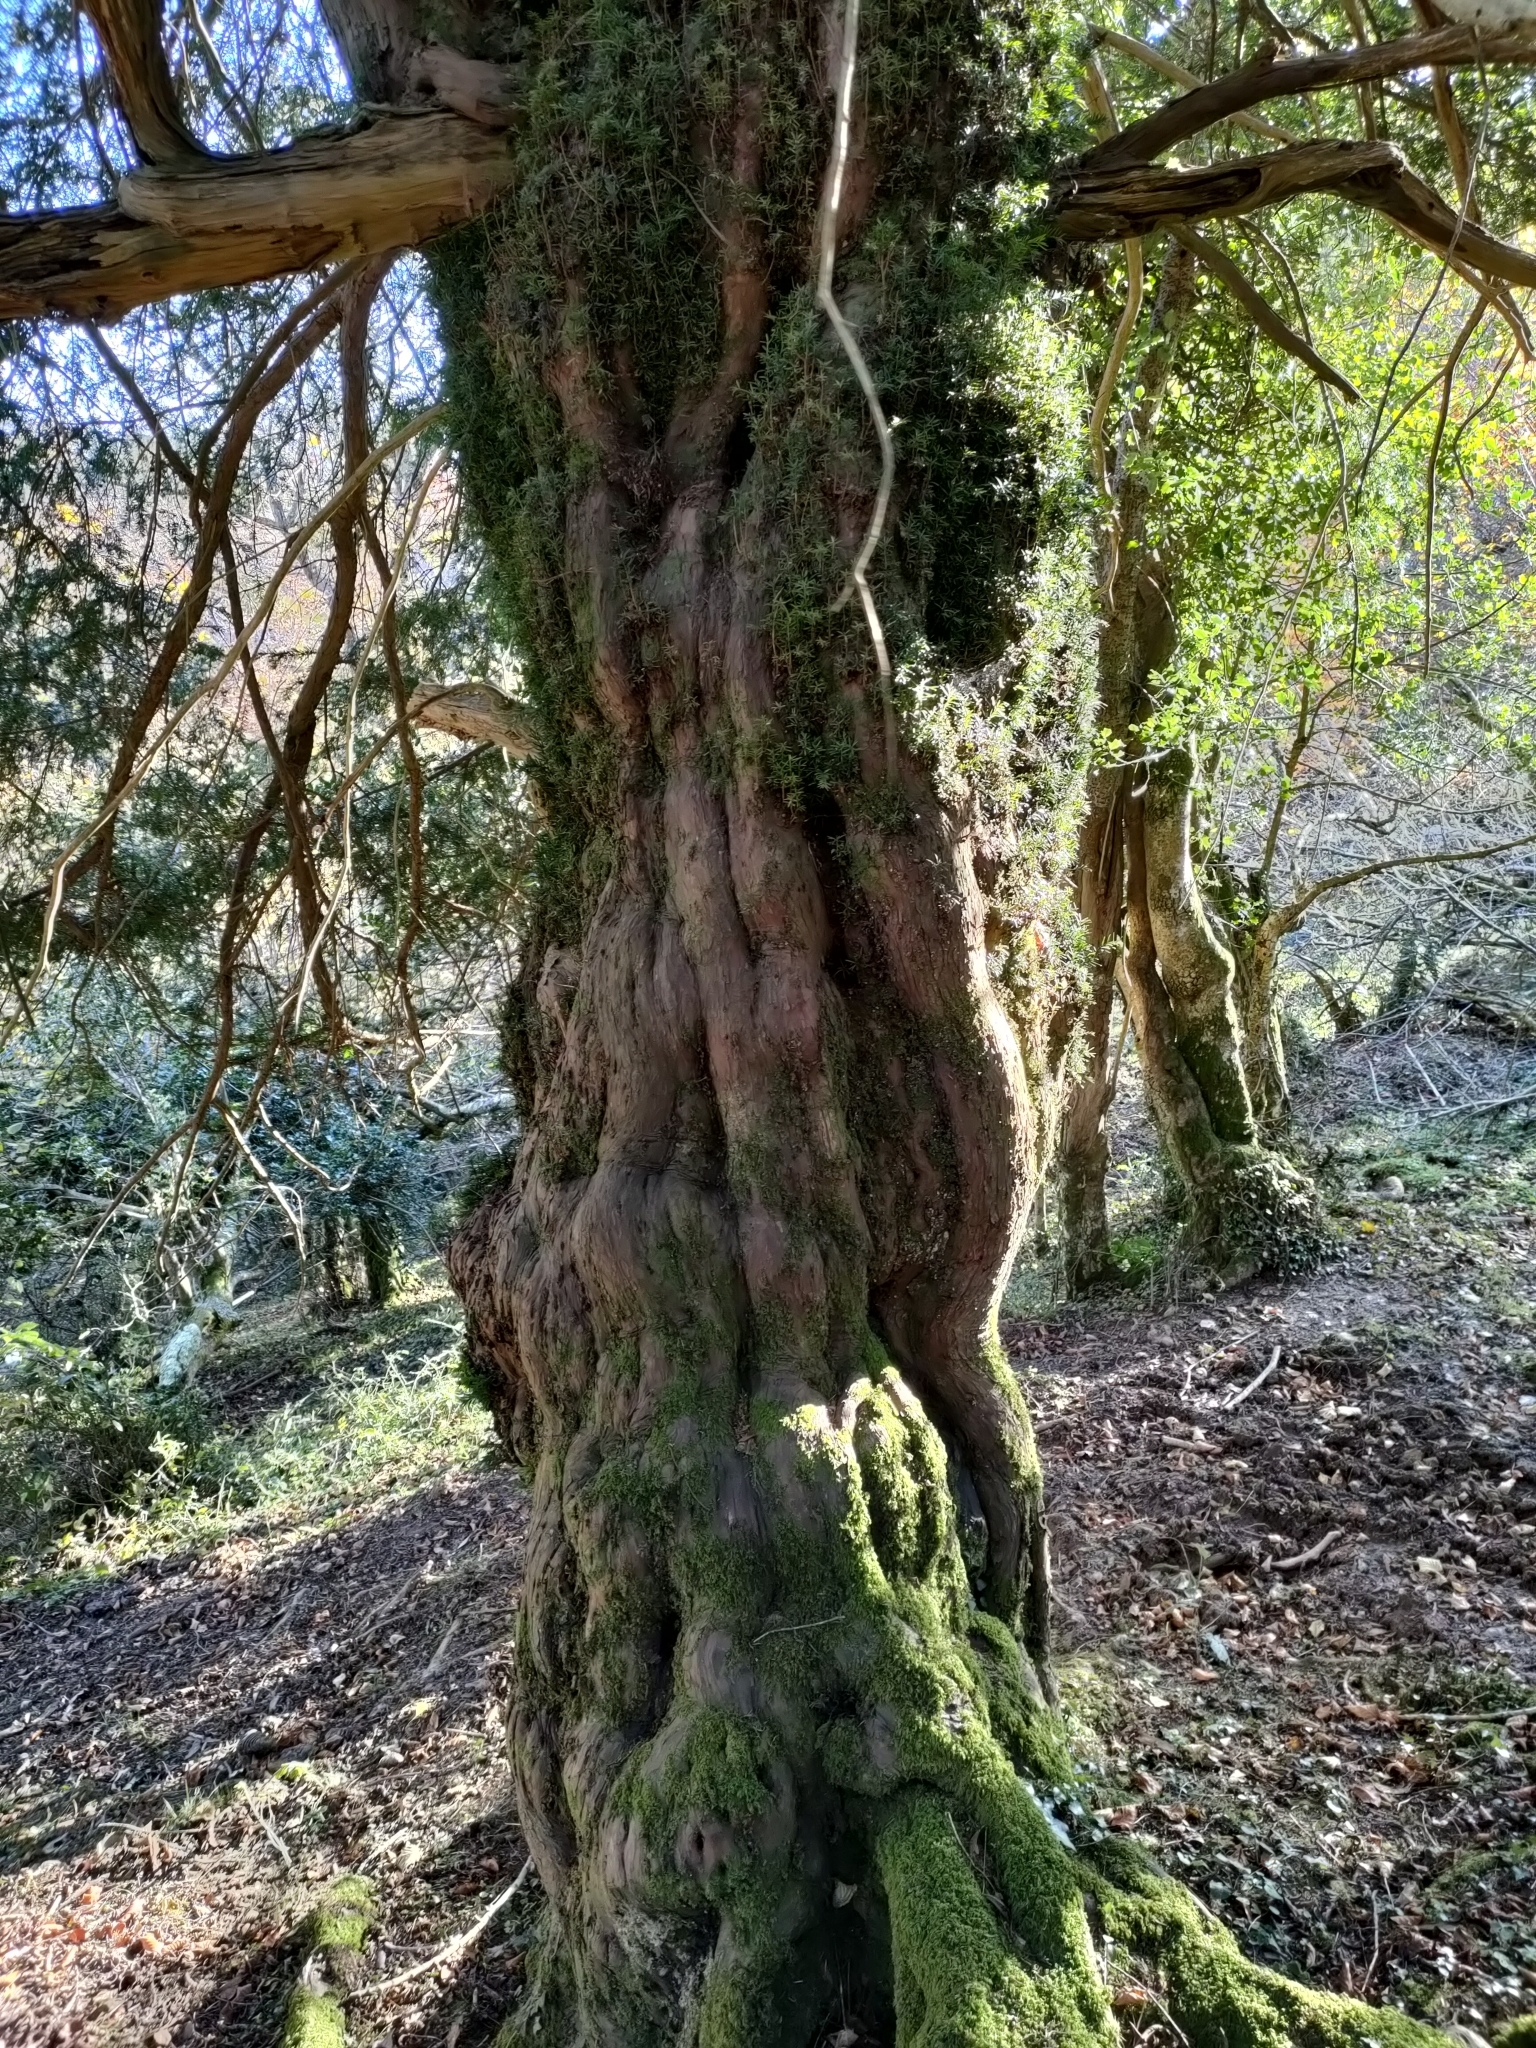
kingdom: Plantae
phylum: Tracheophyta
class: Pinopsida
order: Pinales
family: Taxaceae
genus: Taxus
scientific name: Taxus baccata
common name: Yew
